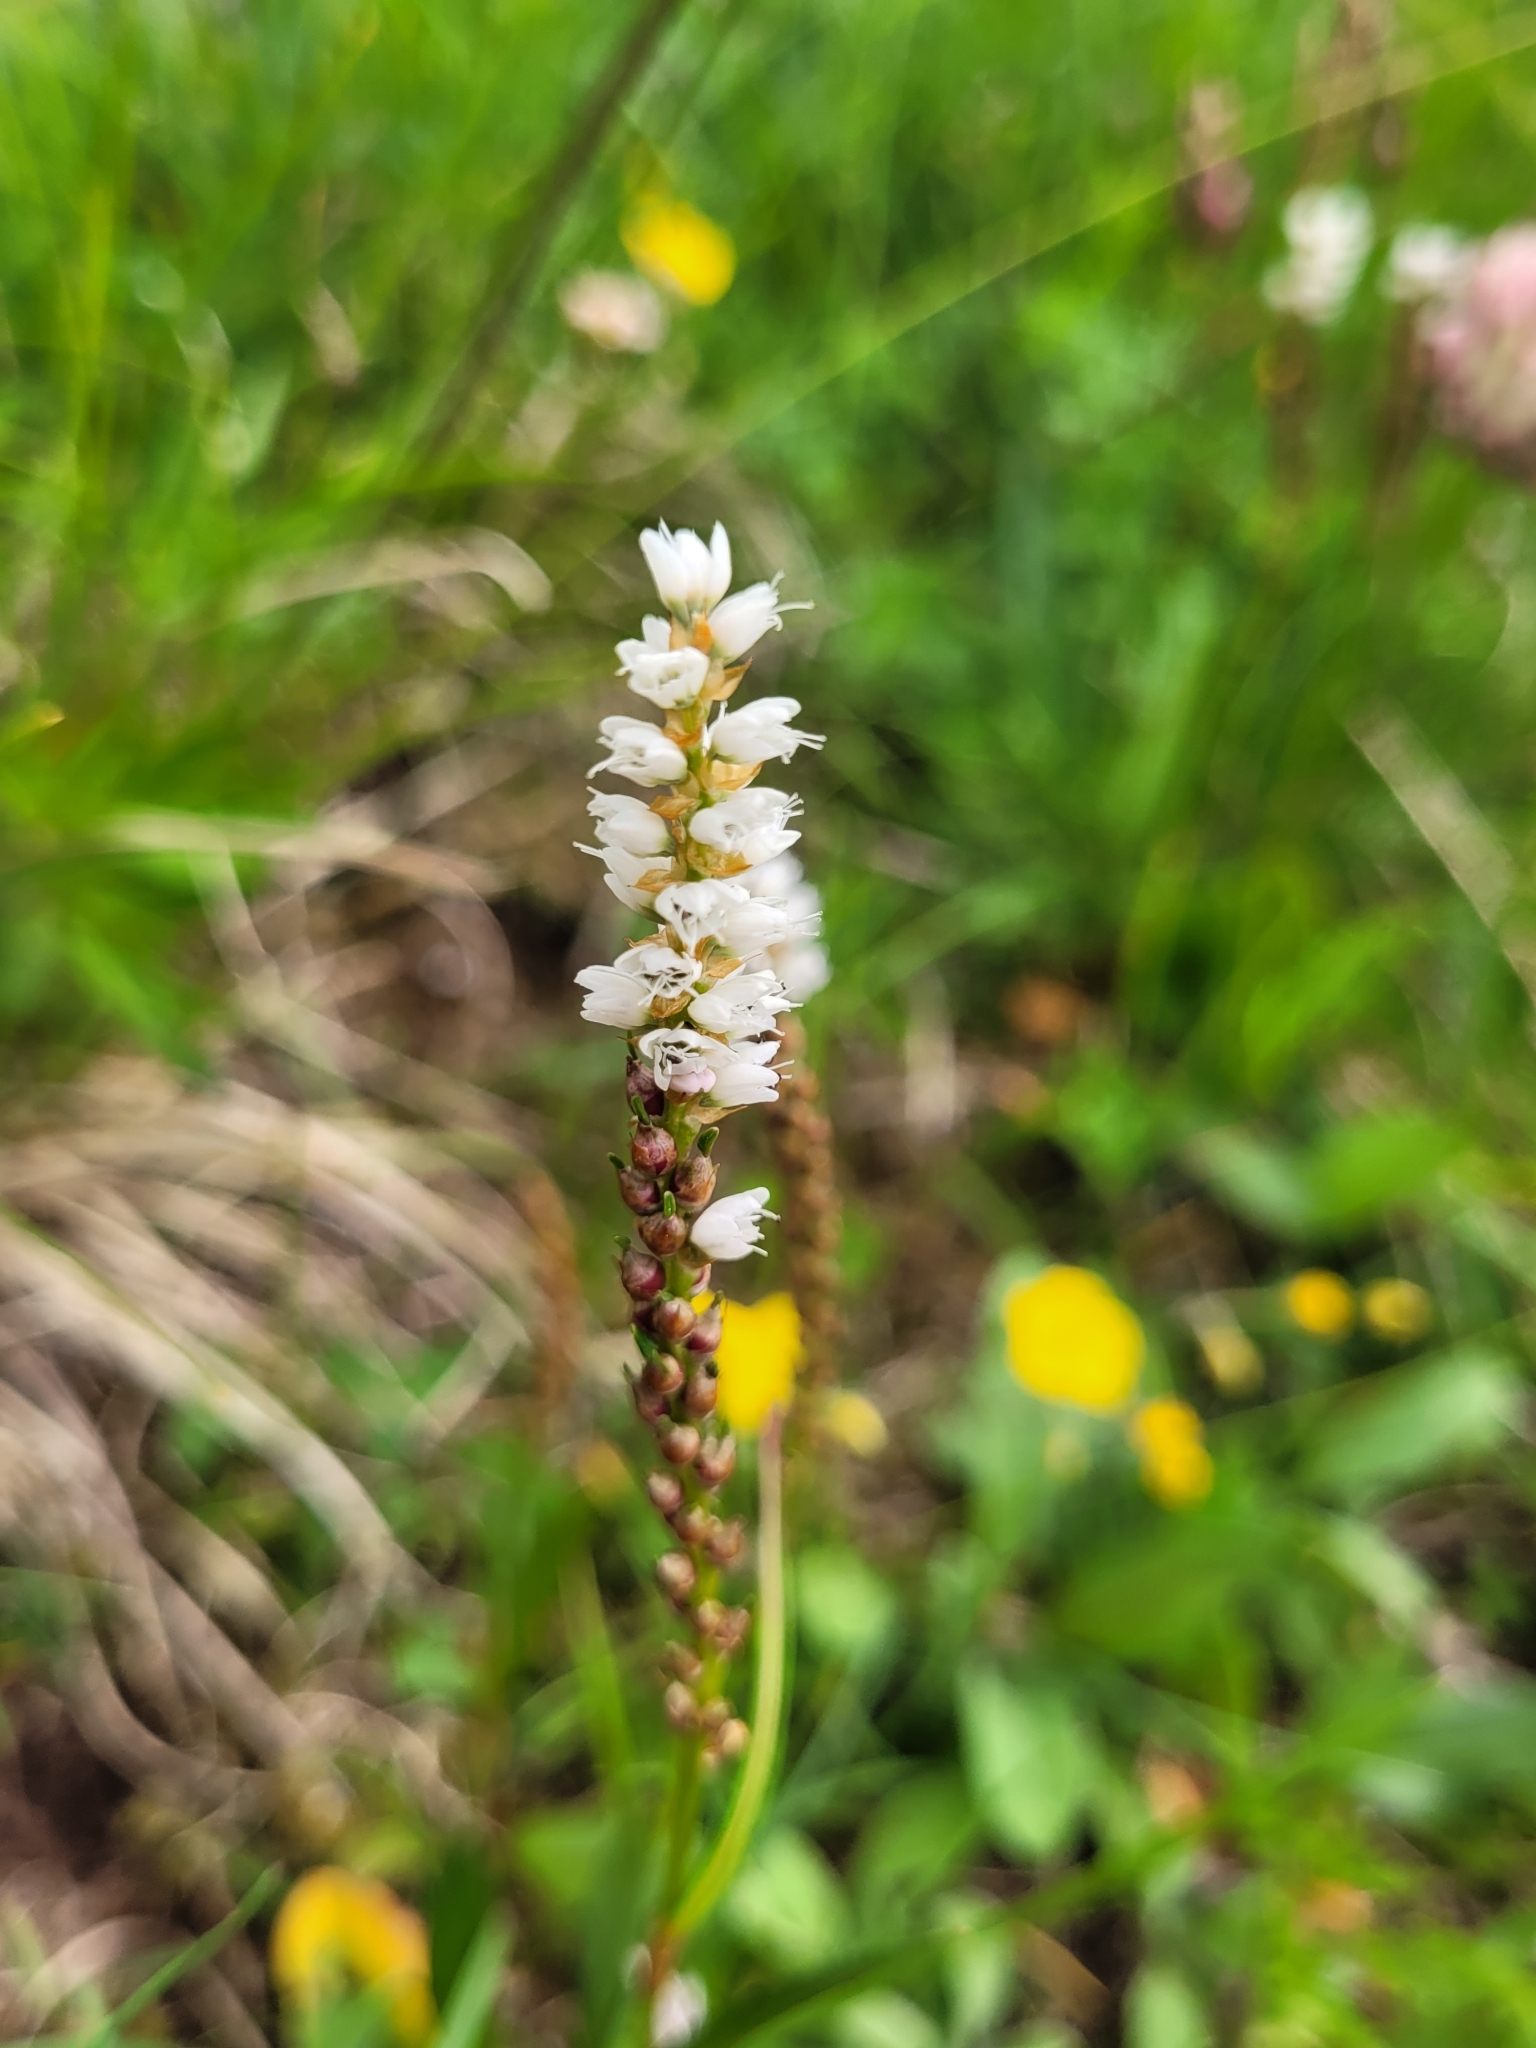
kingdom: Plantae
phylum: Tracheophyta
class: Magnoliopsida
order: Caryophyllales
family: Polygonaceae
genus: Bistorta
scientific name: Bistorta vivipara
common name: Alpine bistort
